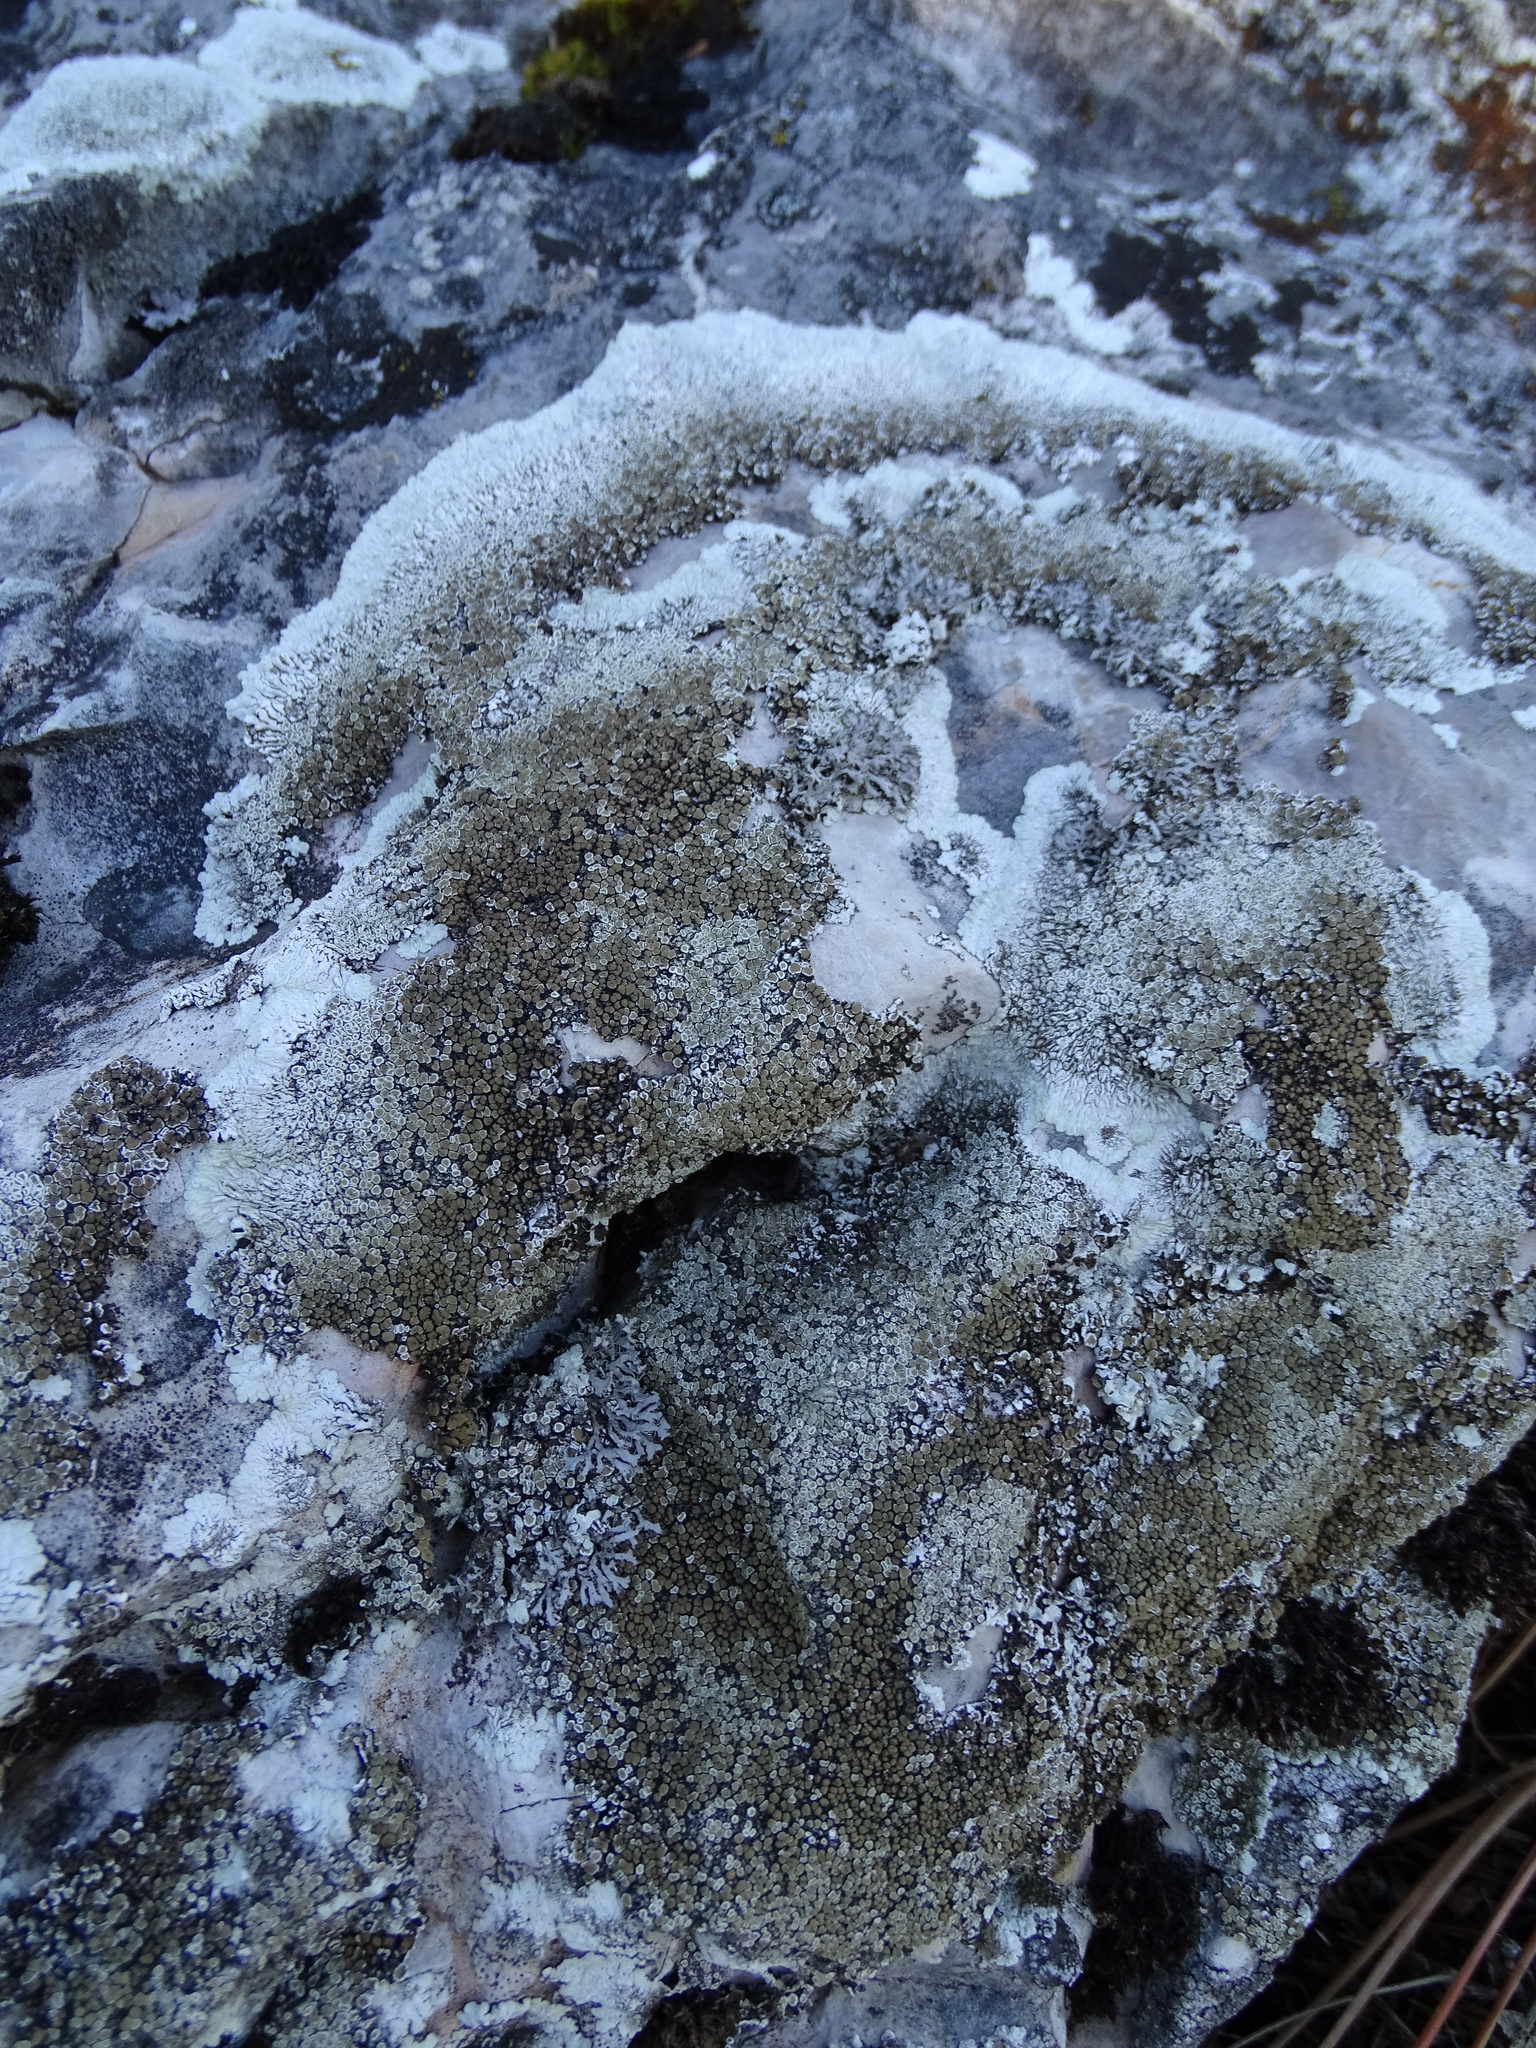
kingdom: Fungi
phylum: Ascomycota
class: Lecanoromycetes
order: Lecanorales
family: Lecanoraceae
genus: Protoparmeliopsis
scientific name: Protoparmeliopsis muralis
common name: Stonewall rim lichen
